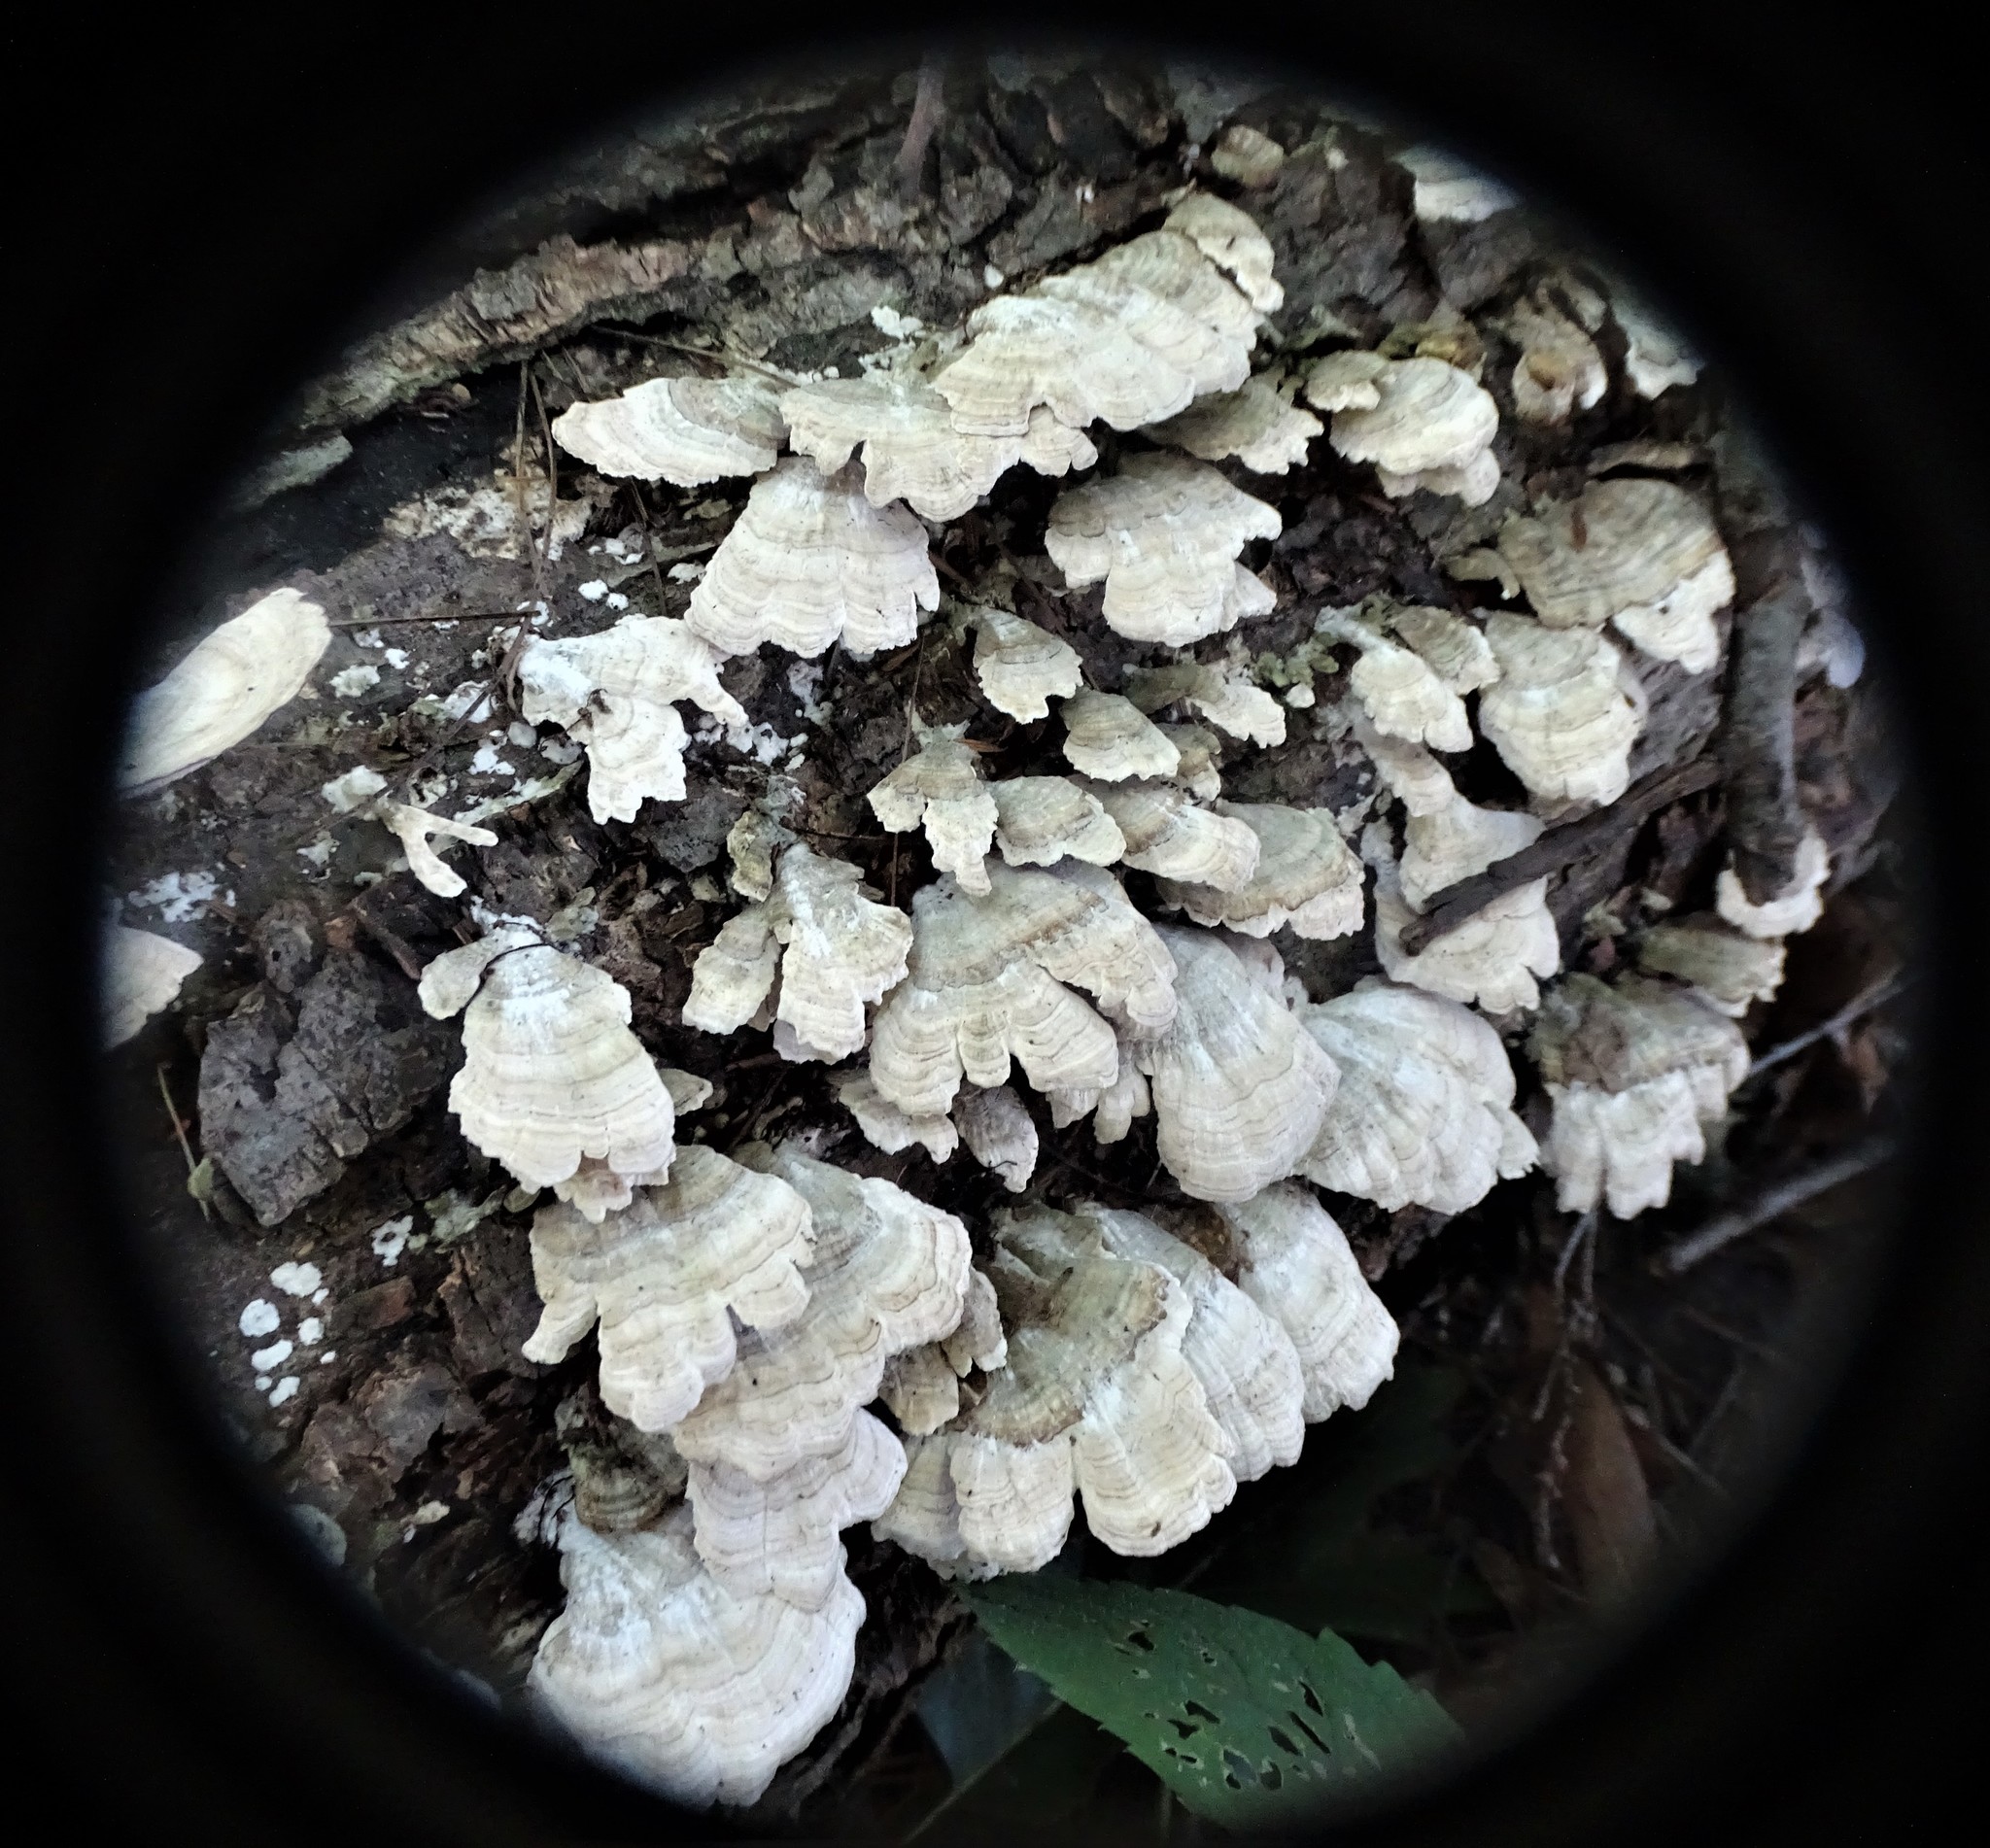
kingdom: Fungi
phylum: Basidiomycota
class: Agaricomycetes
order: Hymenochaetales
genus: Trichaptum
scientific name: Trichaptum biforme
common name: Violet-toothed polypore
